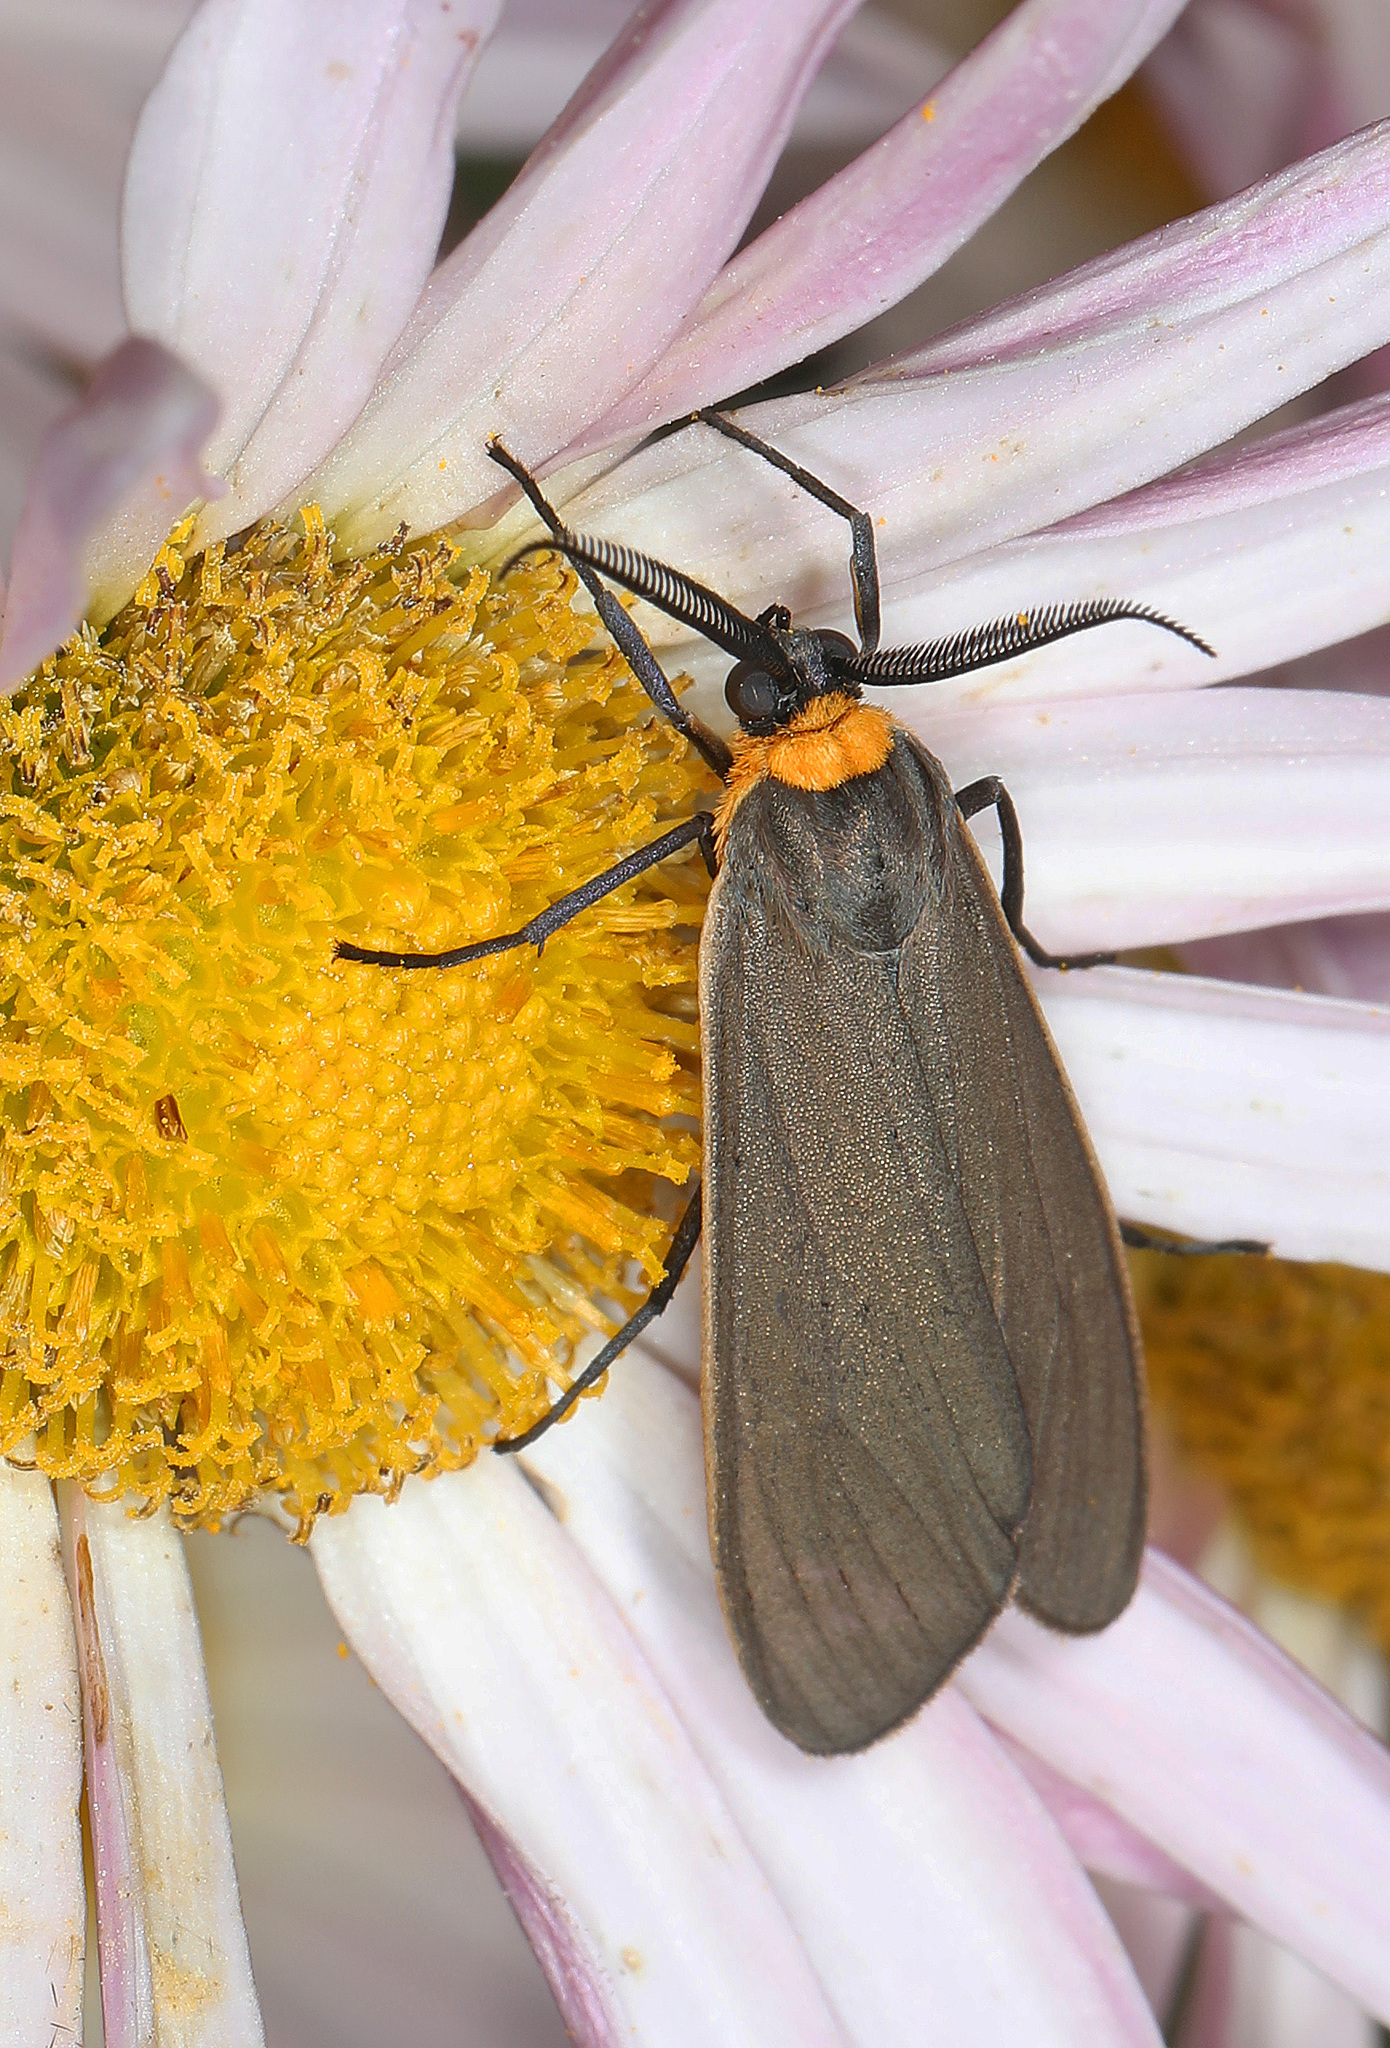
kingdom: Animalia
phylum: Arthropoda
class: Insecta
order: Lepidoptera
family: Erebidae
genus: Cisseps
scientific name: Cisseps fulvicollis
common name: Yellow-collared scape moth
